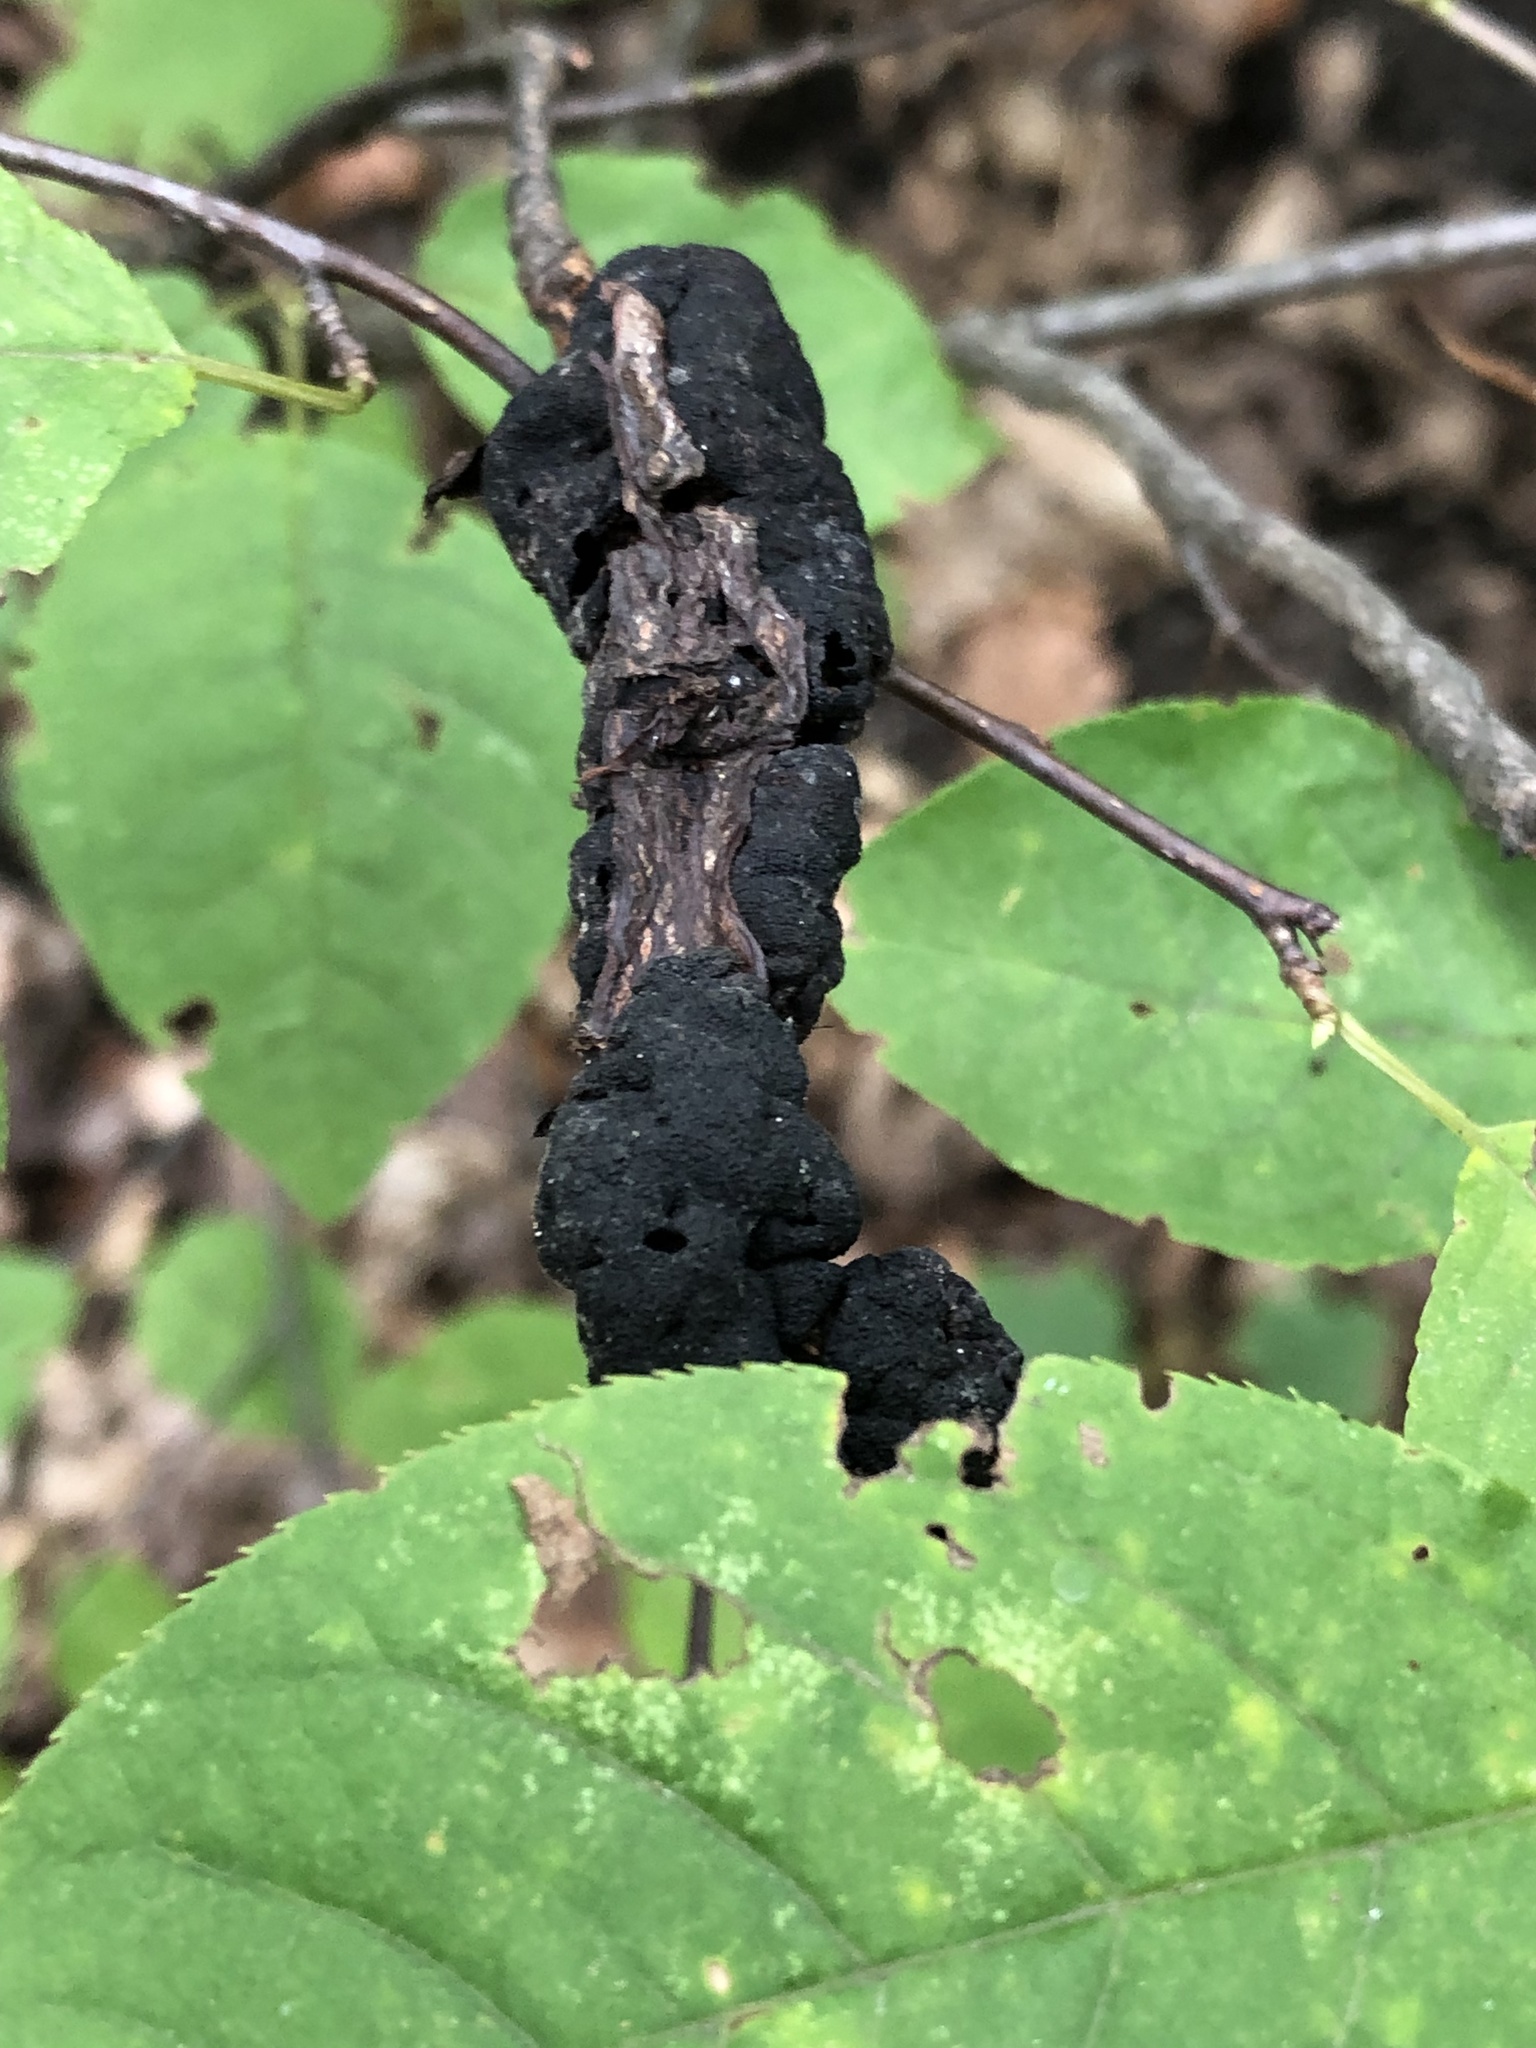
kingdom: Fungi
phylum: Ascomycota
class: Dothideomycetes
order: Venturiales
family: Venturiaceae
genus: Apiosporina
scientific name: Apiosporina morbosa
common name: Black knot
